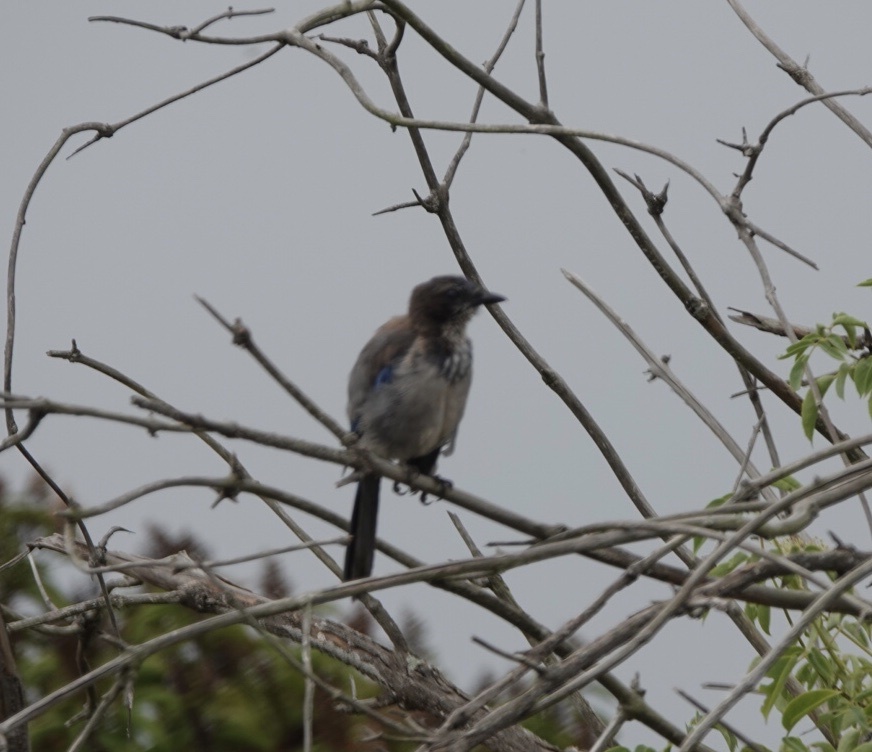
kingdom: Animalia
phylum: Chordata
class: Aves
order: Passeriformes
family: Corvidae
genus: Aphelocoma
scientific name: Aphelocoma californica
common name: California scrub-jay
